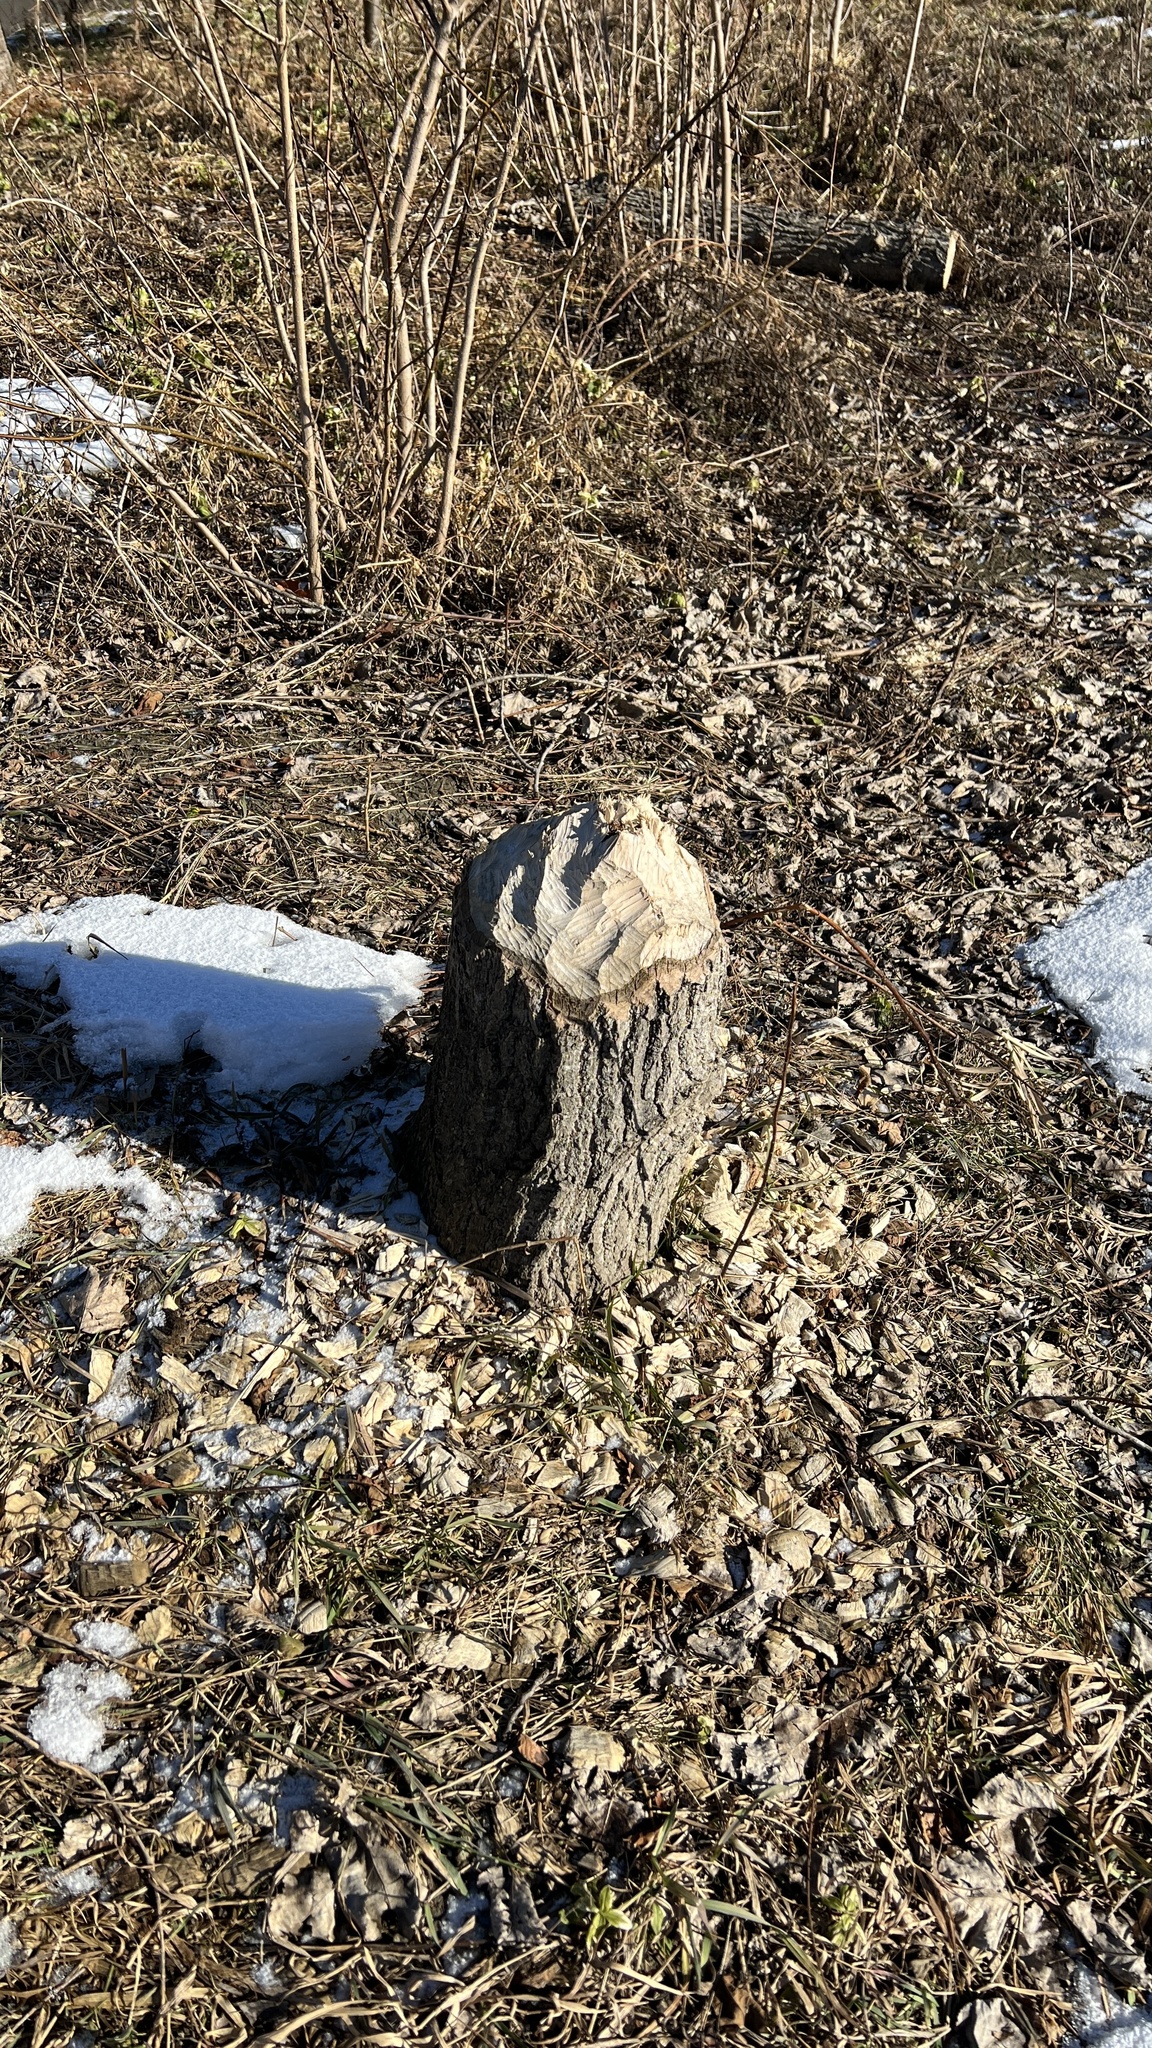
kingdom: Animalia
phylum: Chordata
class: Mammalia
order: Rodentia
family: Castoridae
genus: Castor
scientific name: Castor canadensis
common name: American beaver
